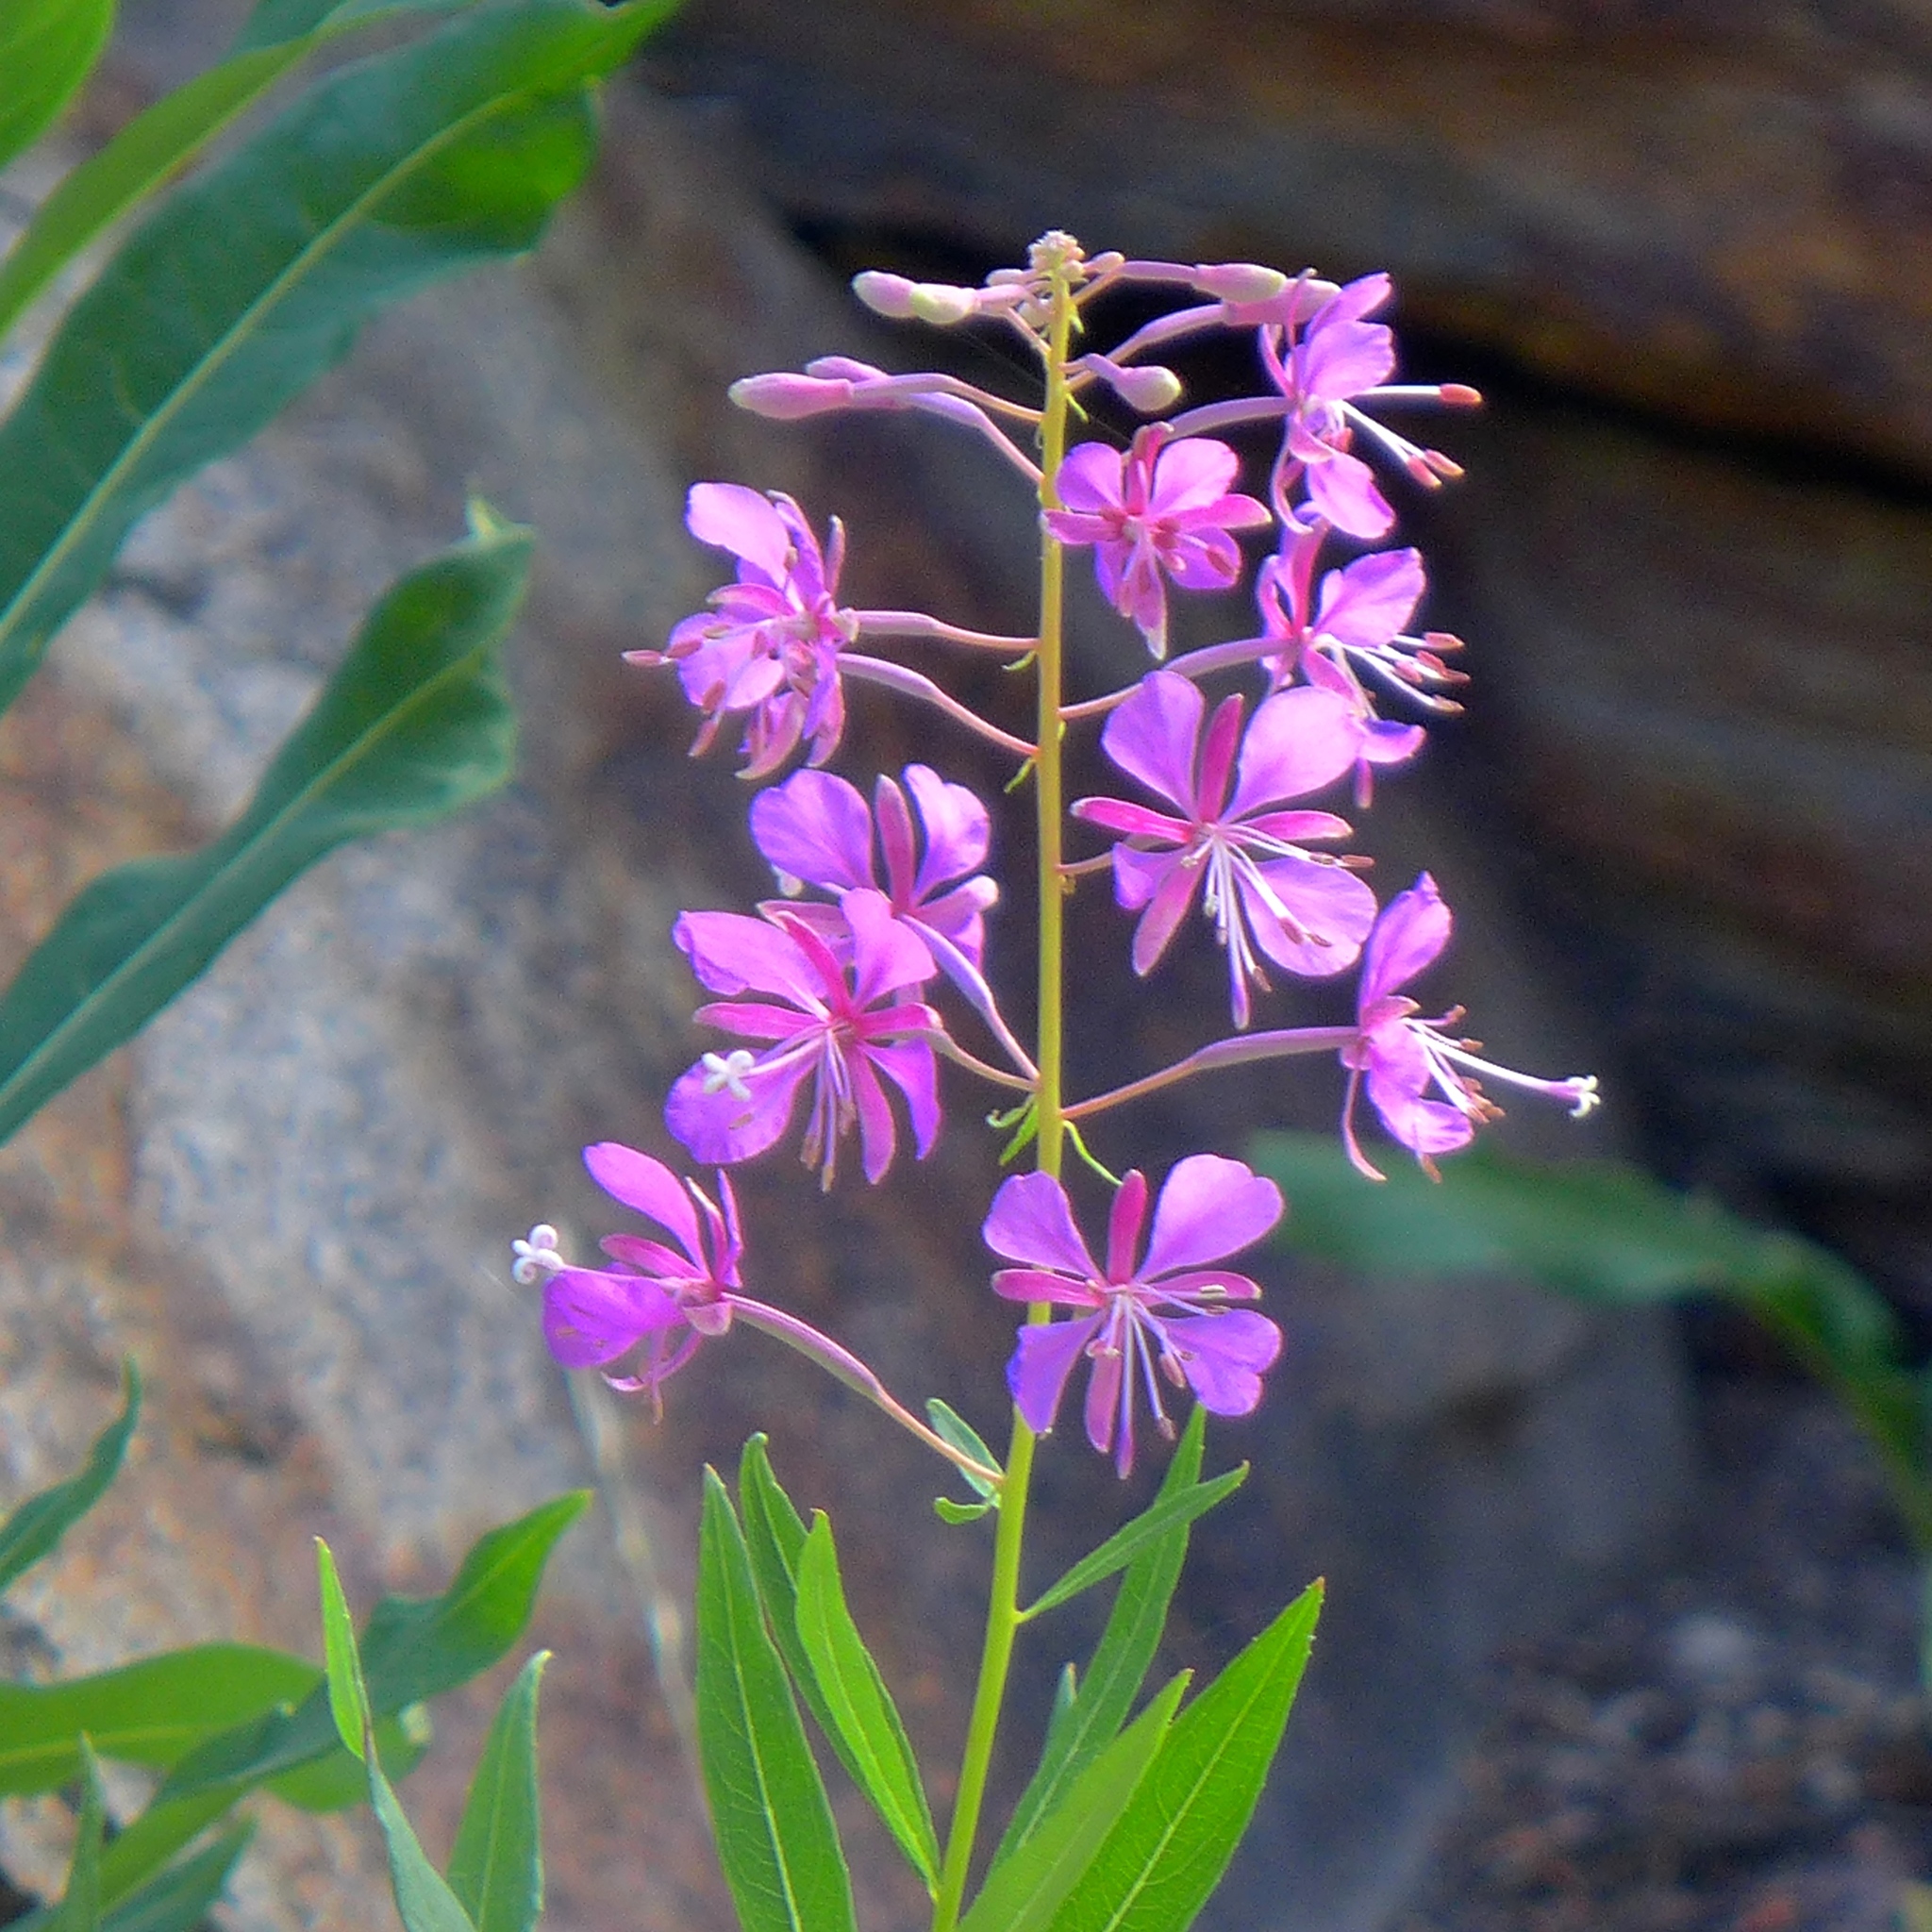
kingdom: Plantae
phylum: Tracheophyta
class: Magnoliopsida
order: Myrtales
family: Onagraceae
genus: Chamaenerion
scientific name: Chamaenerion angustifolium
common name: Fireweed
